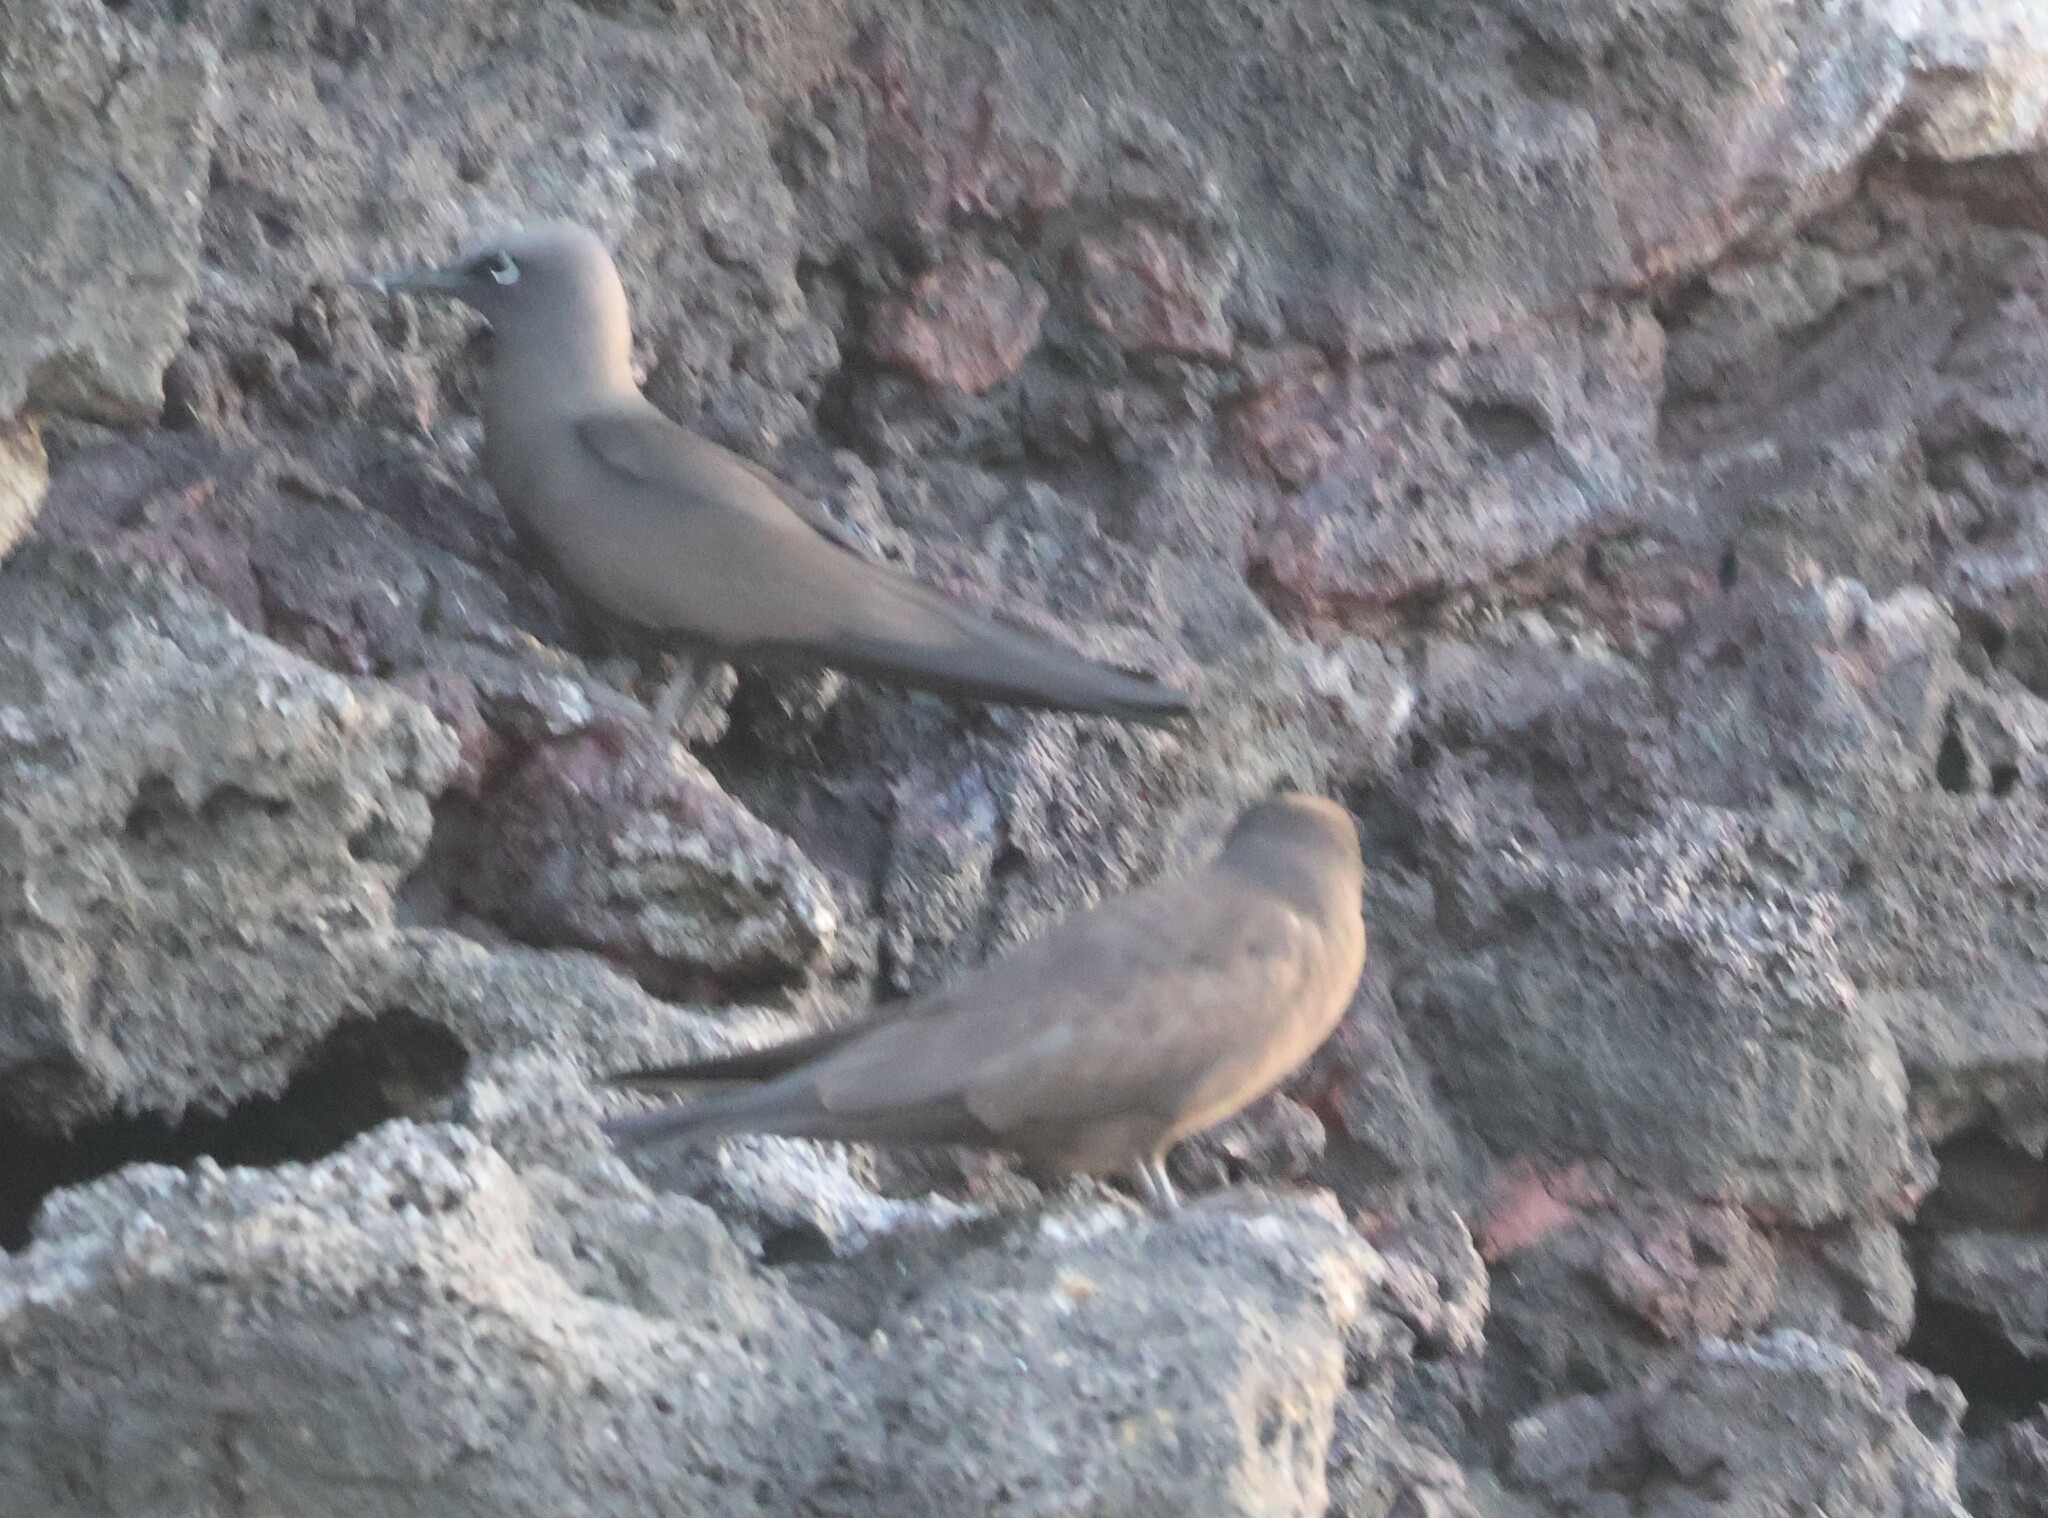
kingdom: Animalia
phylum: Chordata
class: Aves
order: Charadriiformes
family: Laridae
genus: Anous
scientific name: Anous stolidus
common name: Brown noddy
